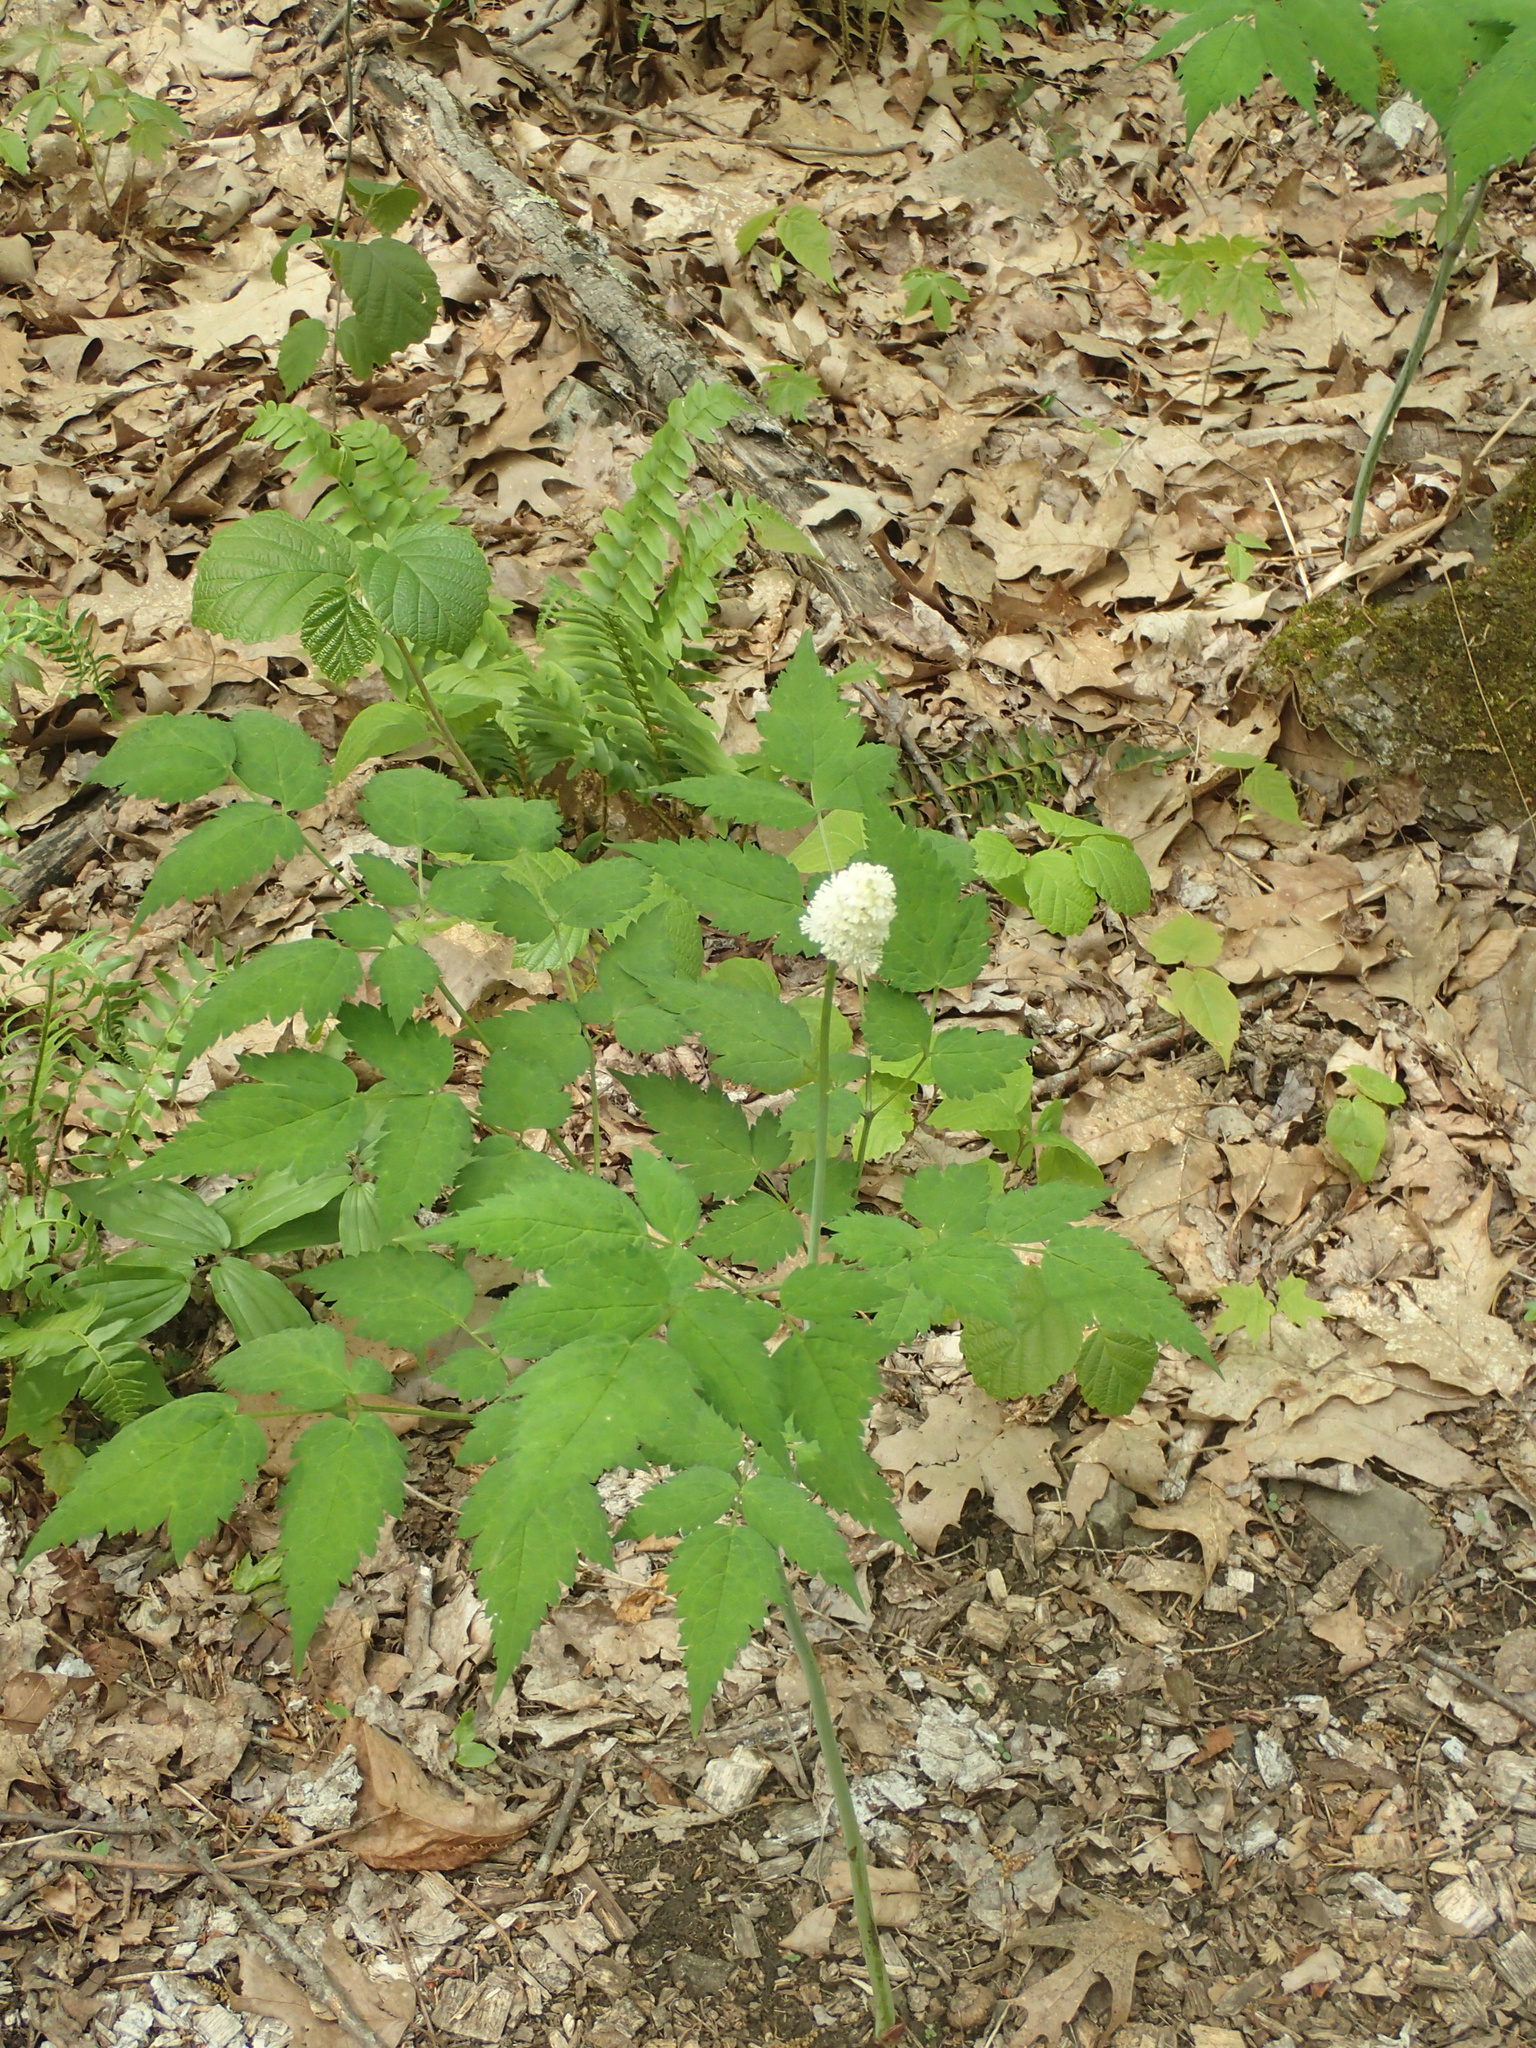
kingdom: Plantae
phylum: Tracheophyta
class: Magnoliopsida
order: Ranunculales
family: Ranunculaceae
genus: Actaea
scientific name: Actaea pachypoda
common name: Doll's-eyes
